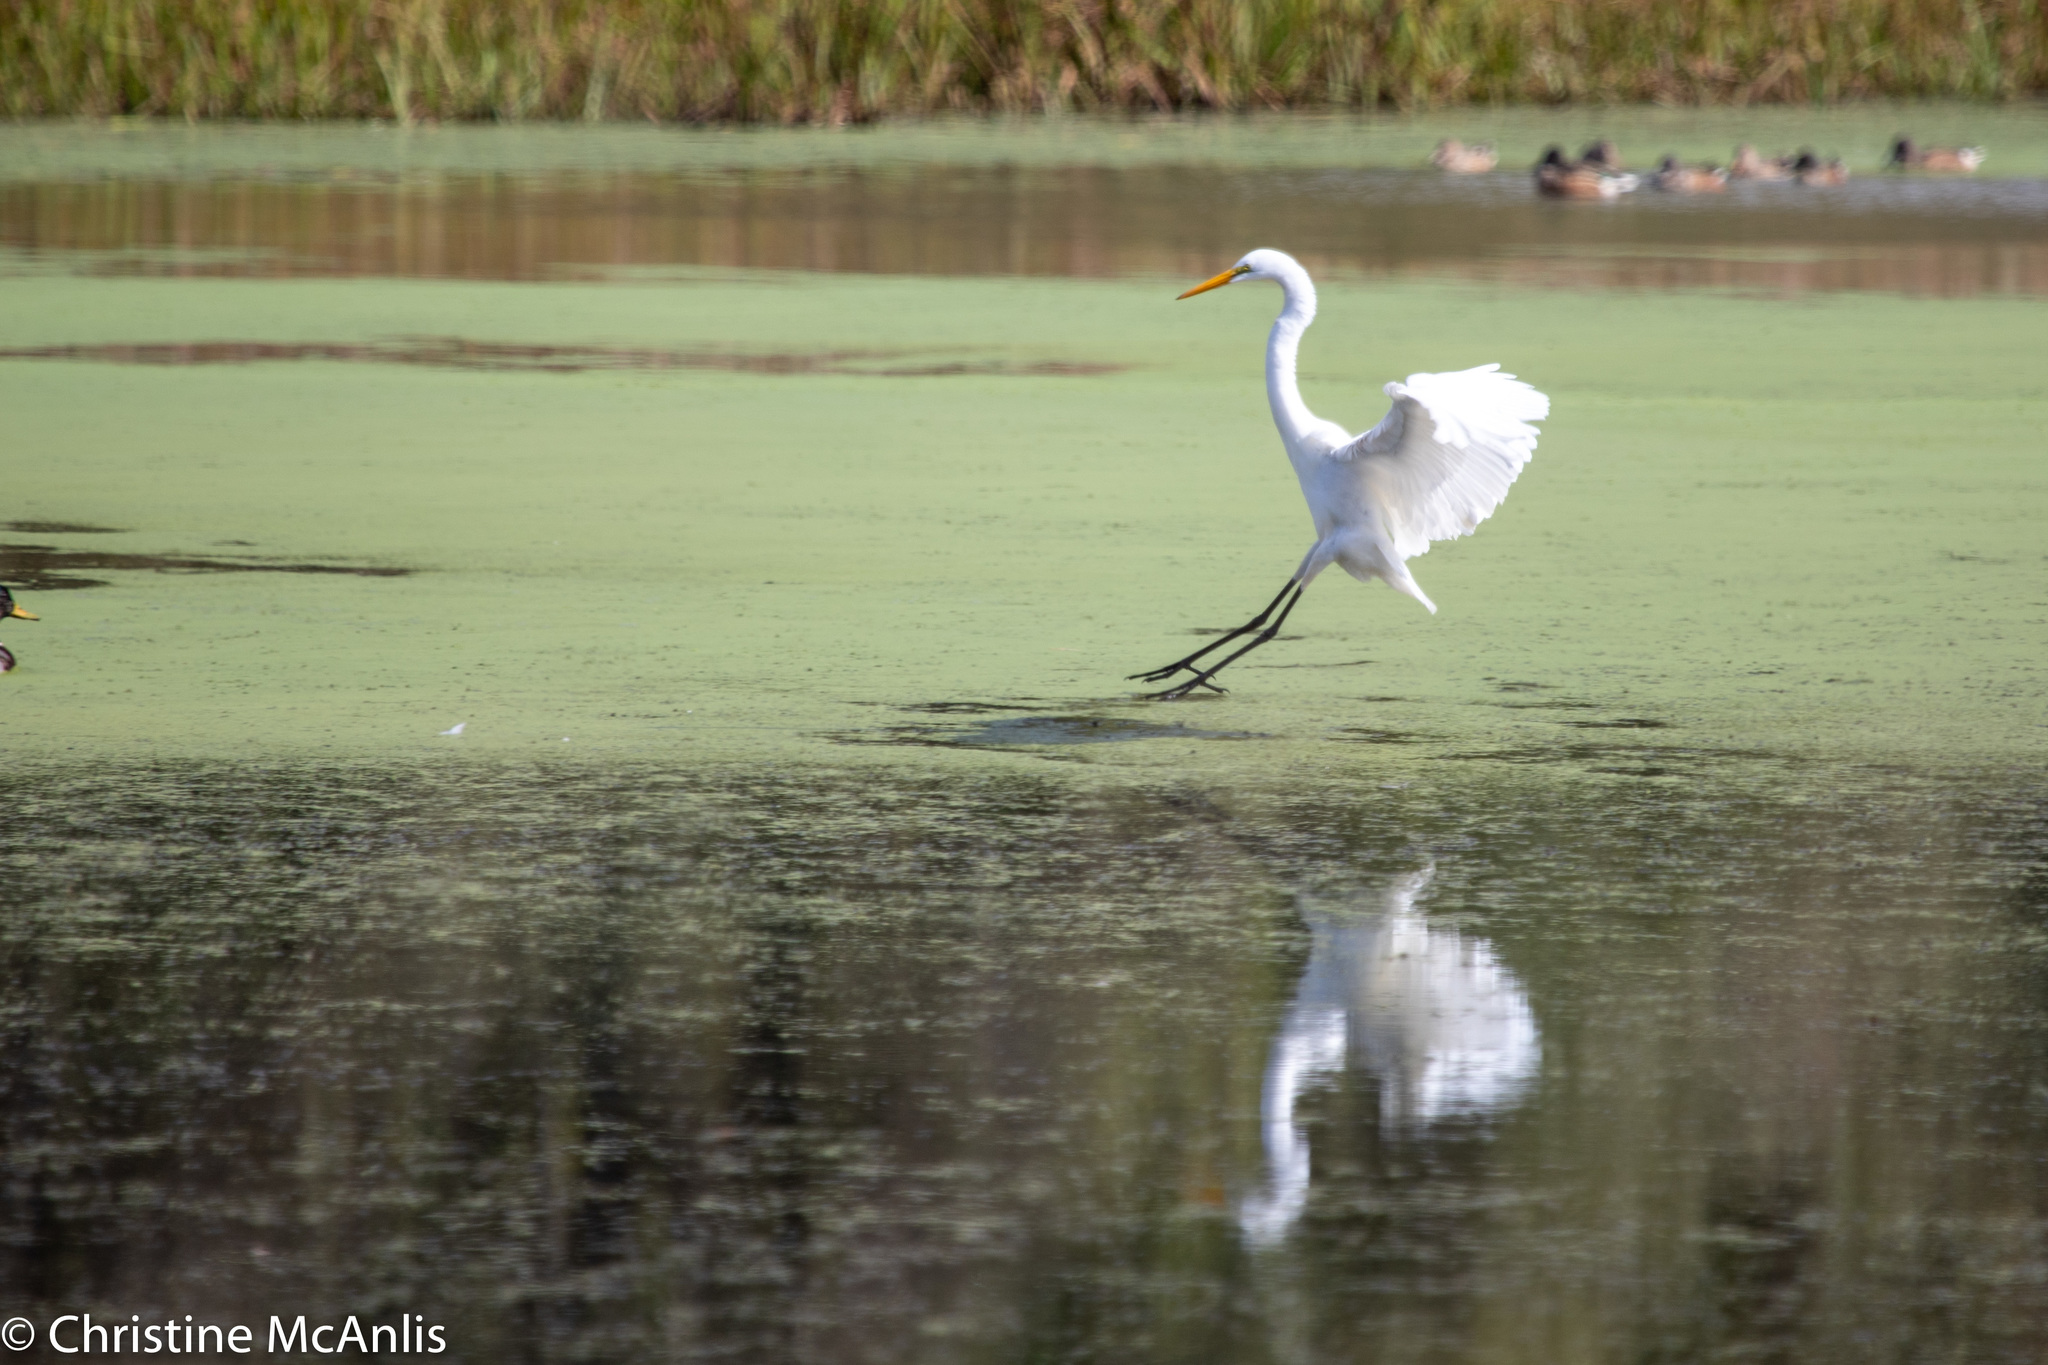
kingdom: Animalia
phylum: Chordata
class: Aves
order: Pelecaniformes
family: Ardeidae
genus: Ardea
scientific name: Ardea alba
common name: Great egret
